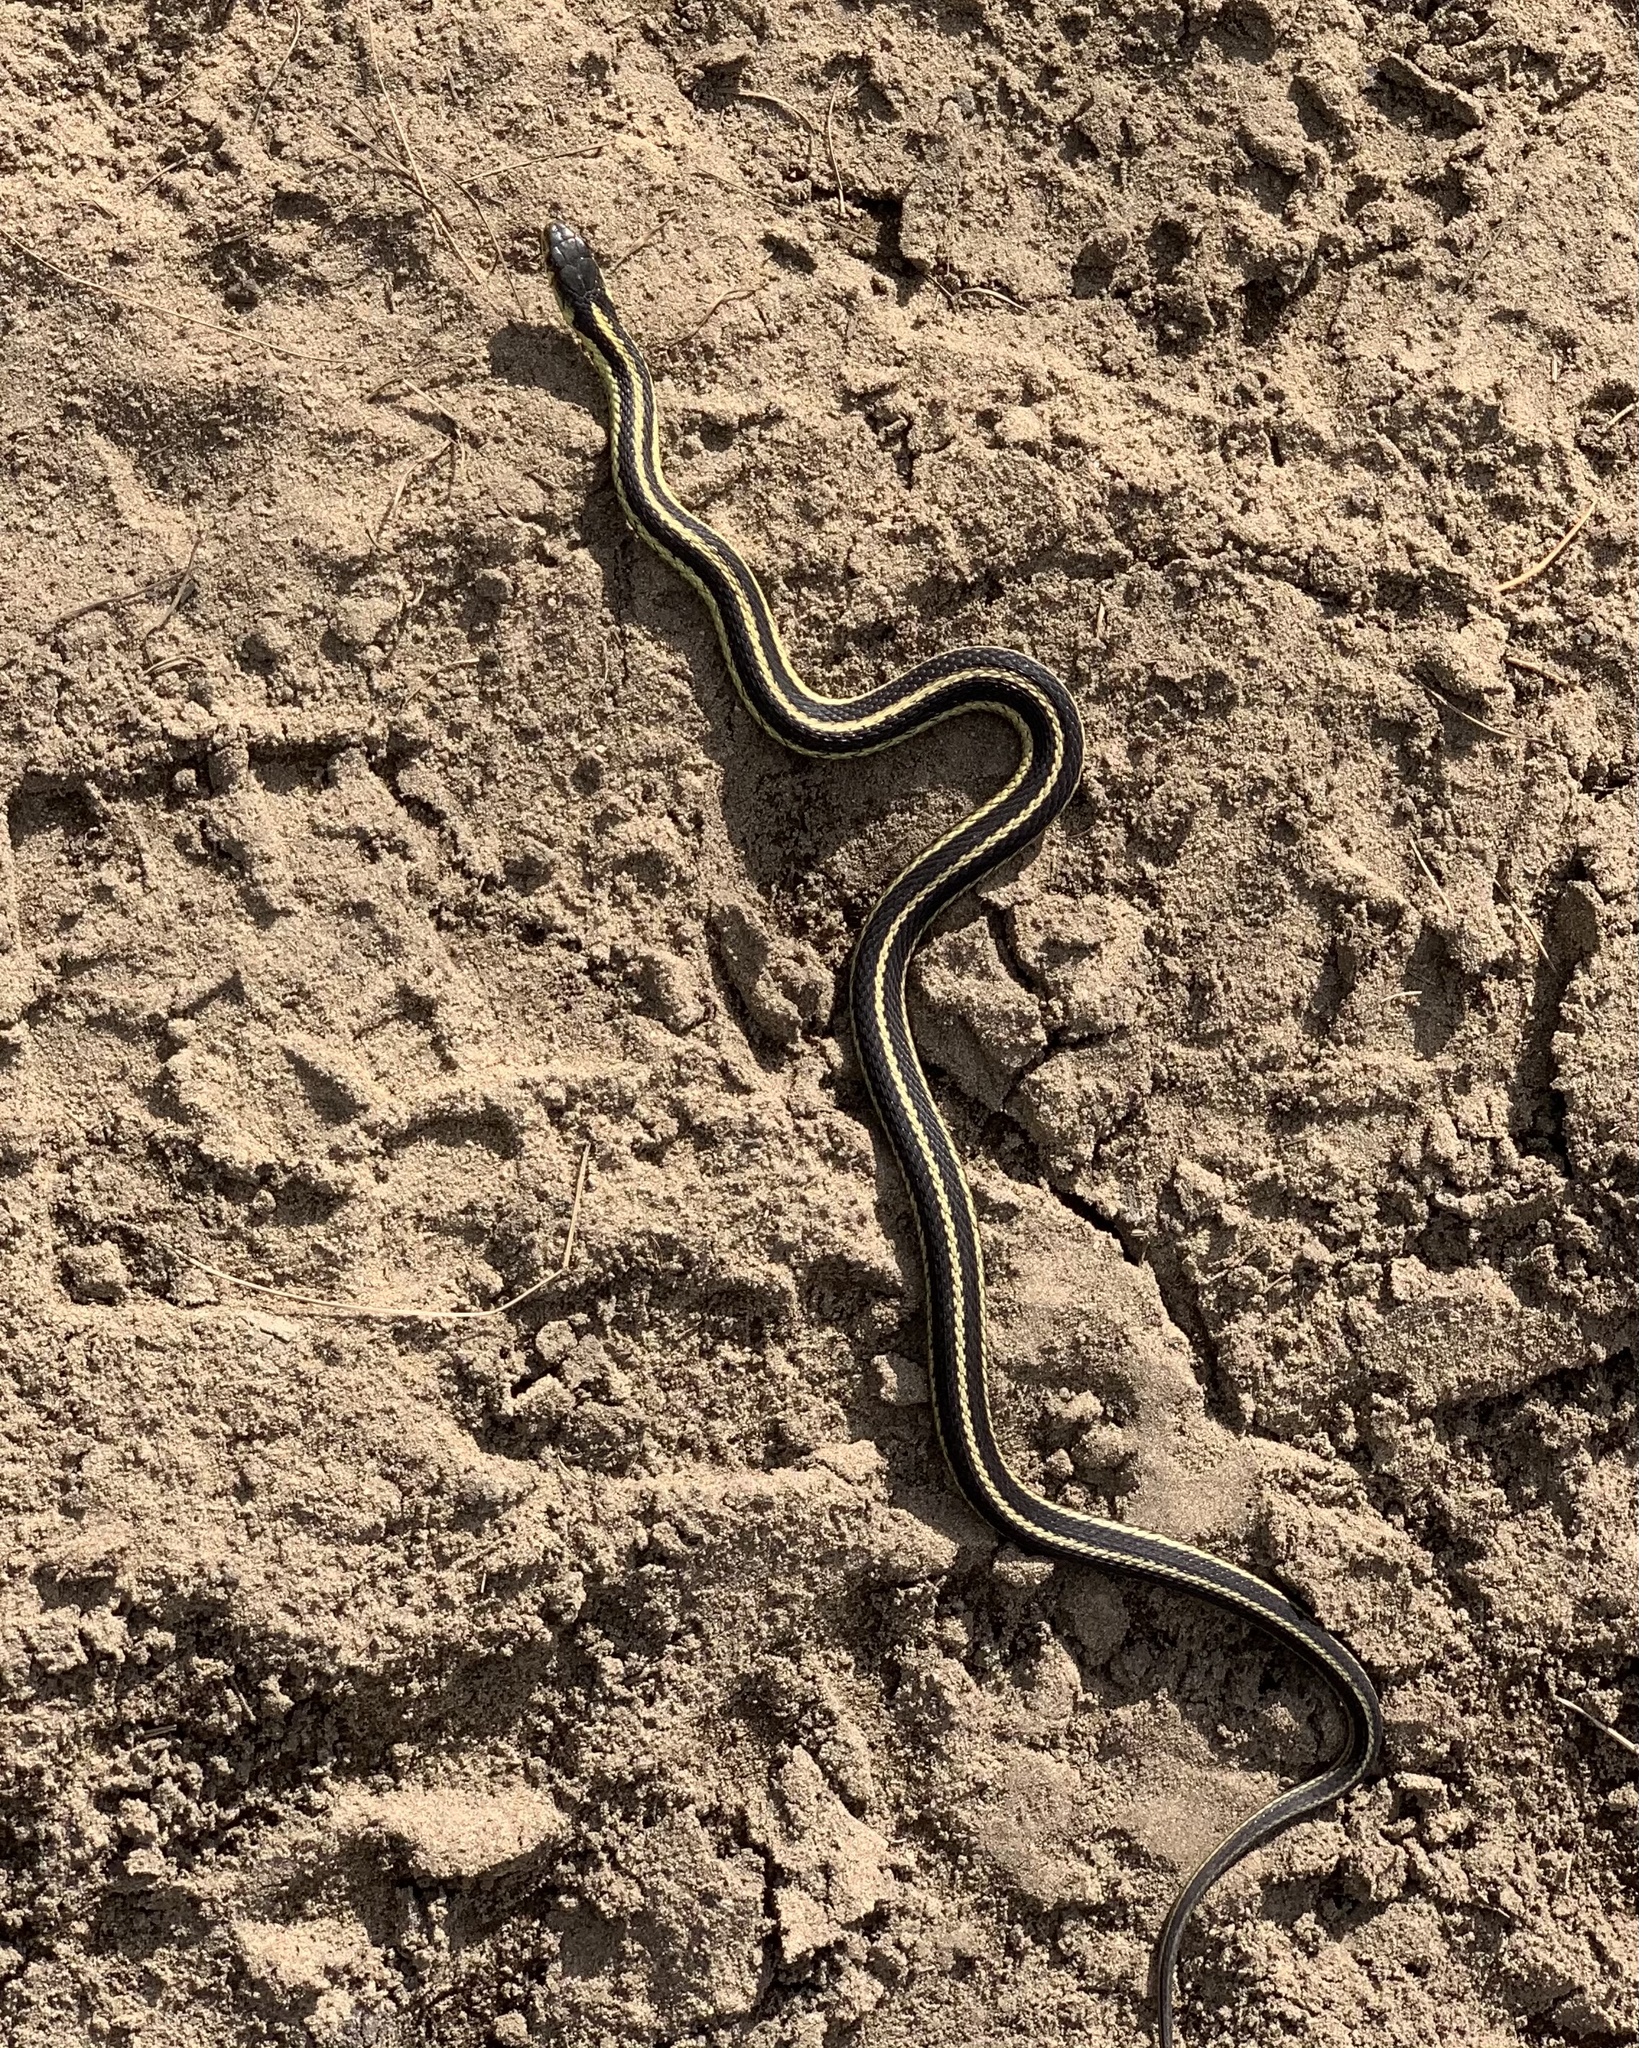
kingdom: Animalia
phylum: Chordata
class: Squamata
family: Colubridae
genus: Thamnophis
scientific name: Thamnophis sirtalis
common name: Common garter snake
